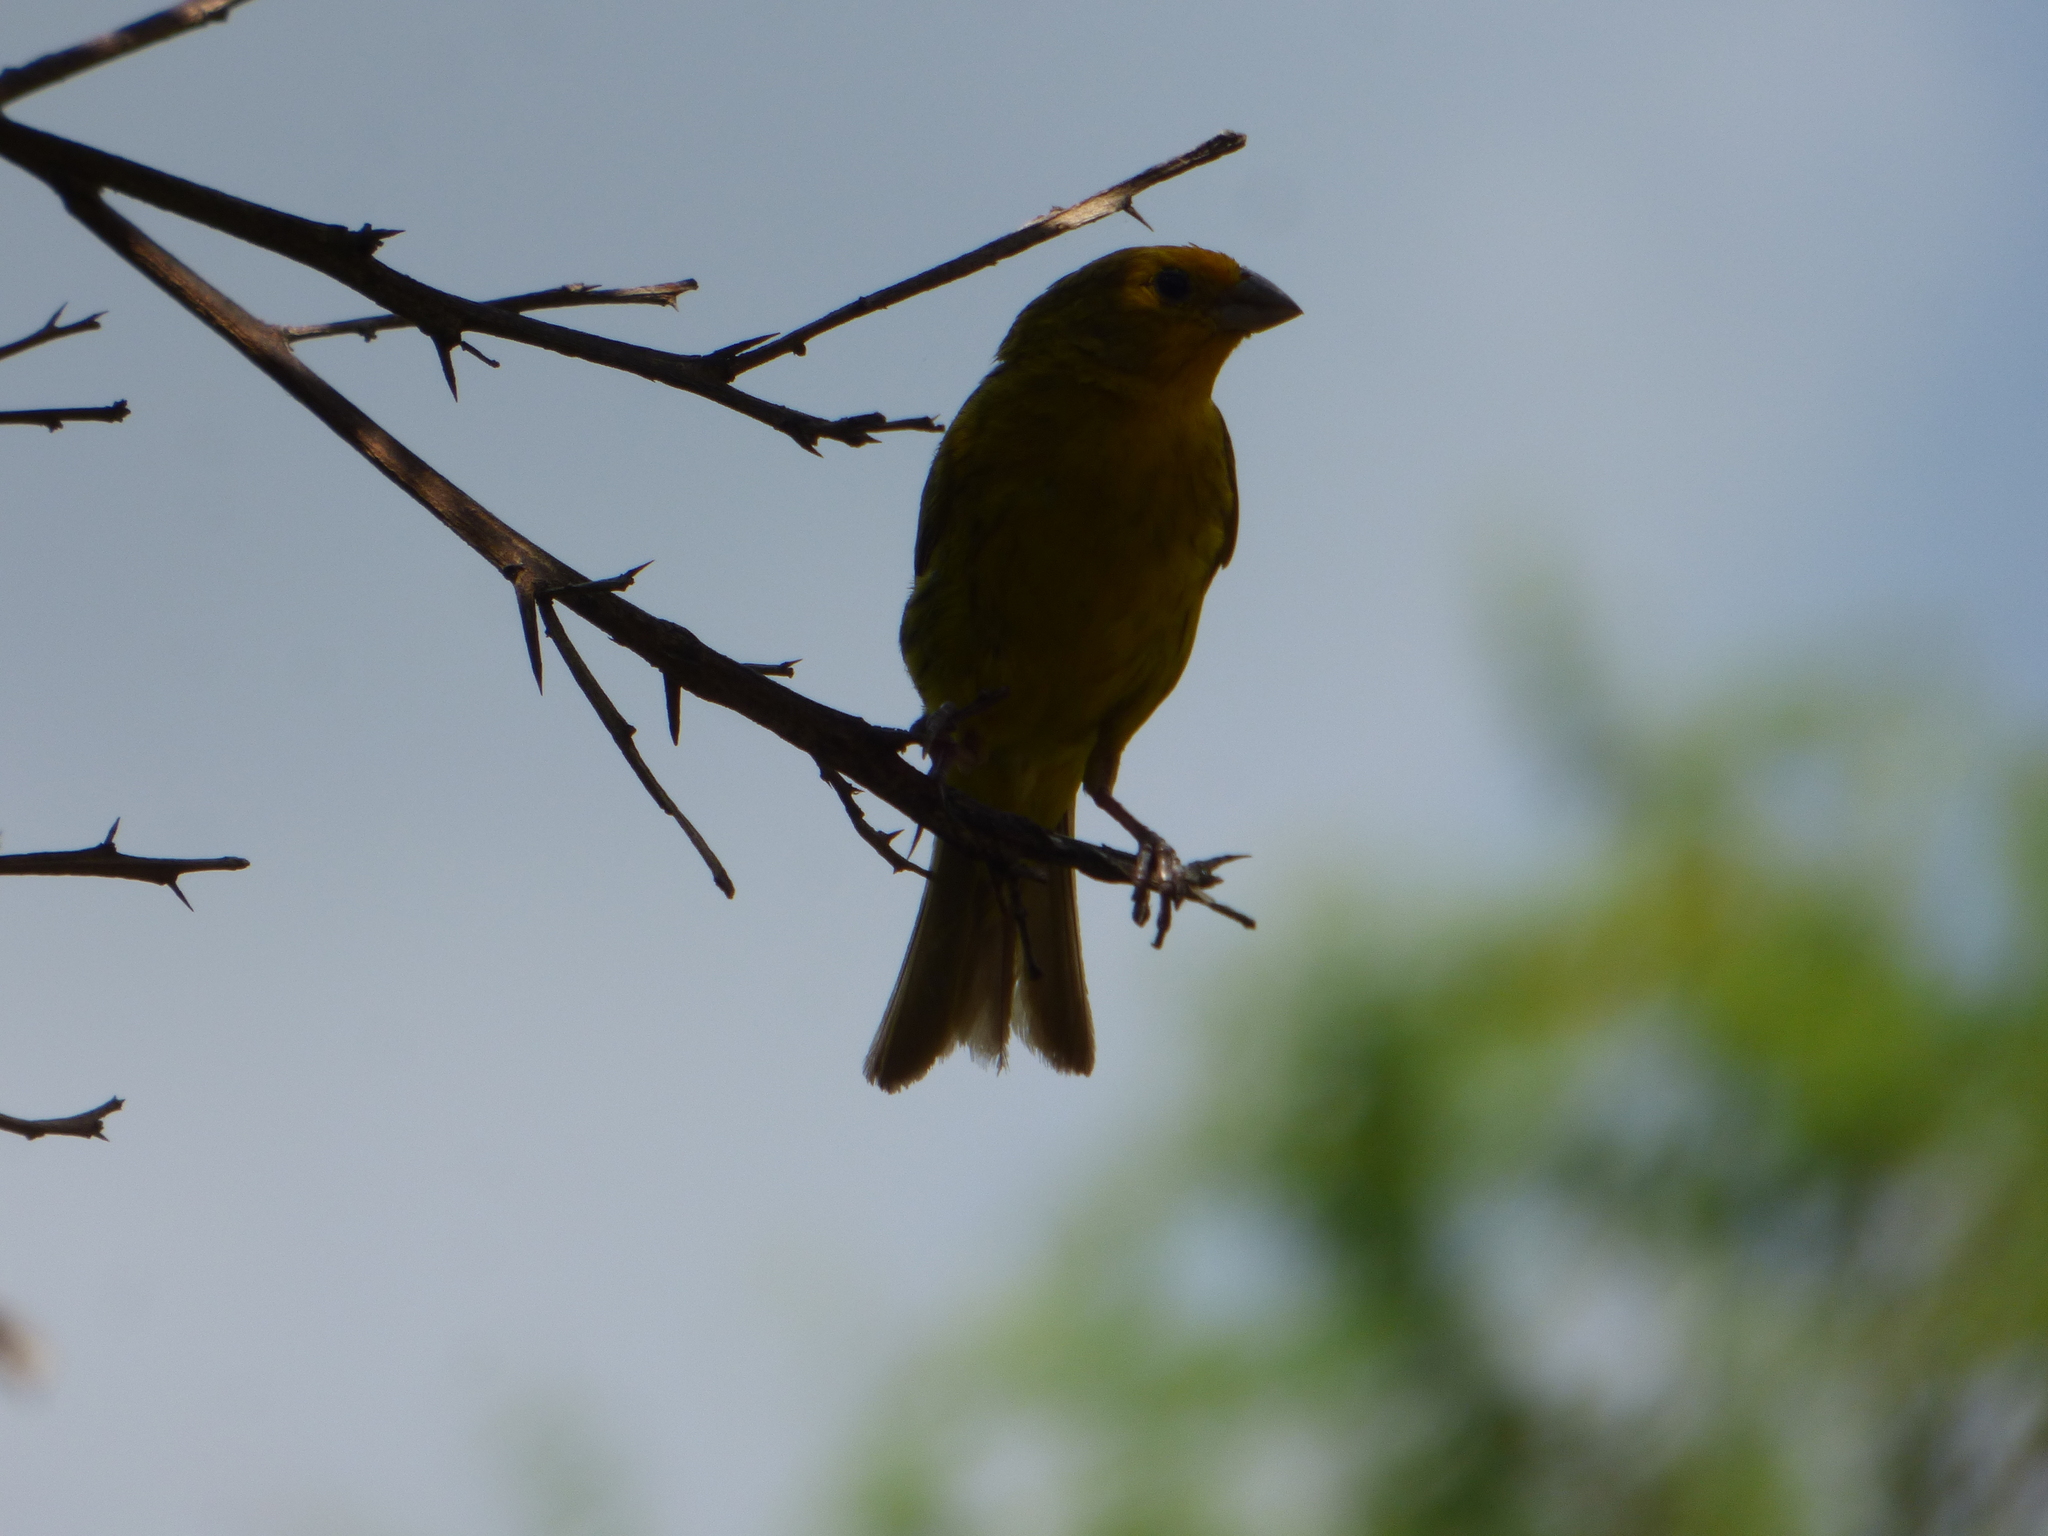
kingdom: Animalia
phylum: Chordata
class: Aves
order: Passeriformes
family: Thraupidae
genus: Sicalis
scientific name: Sicalis flaveola
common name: Saffron finch
